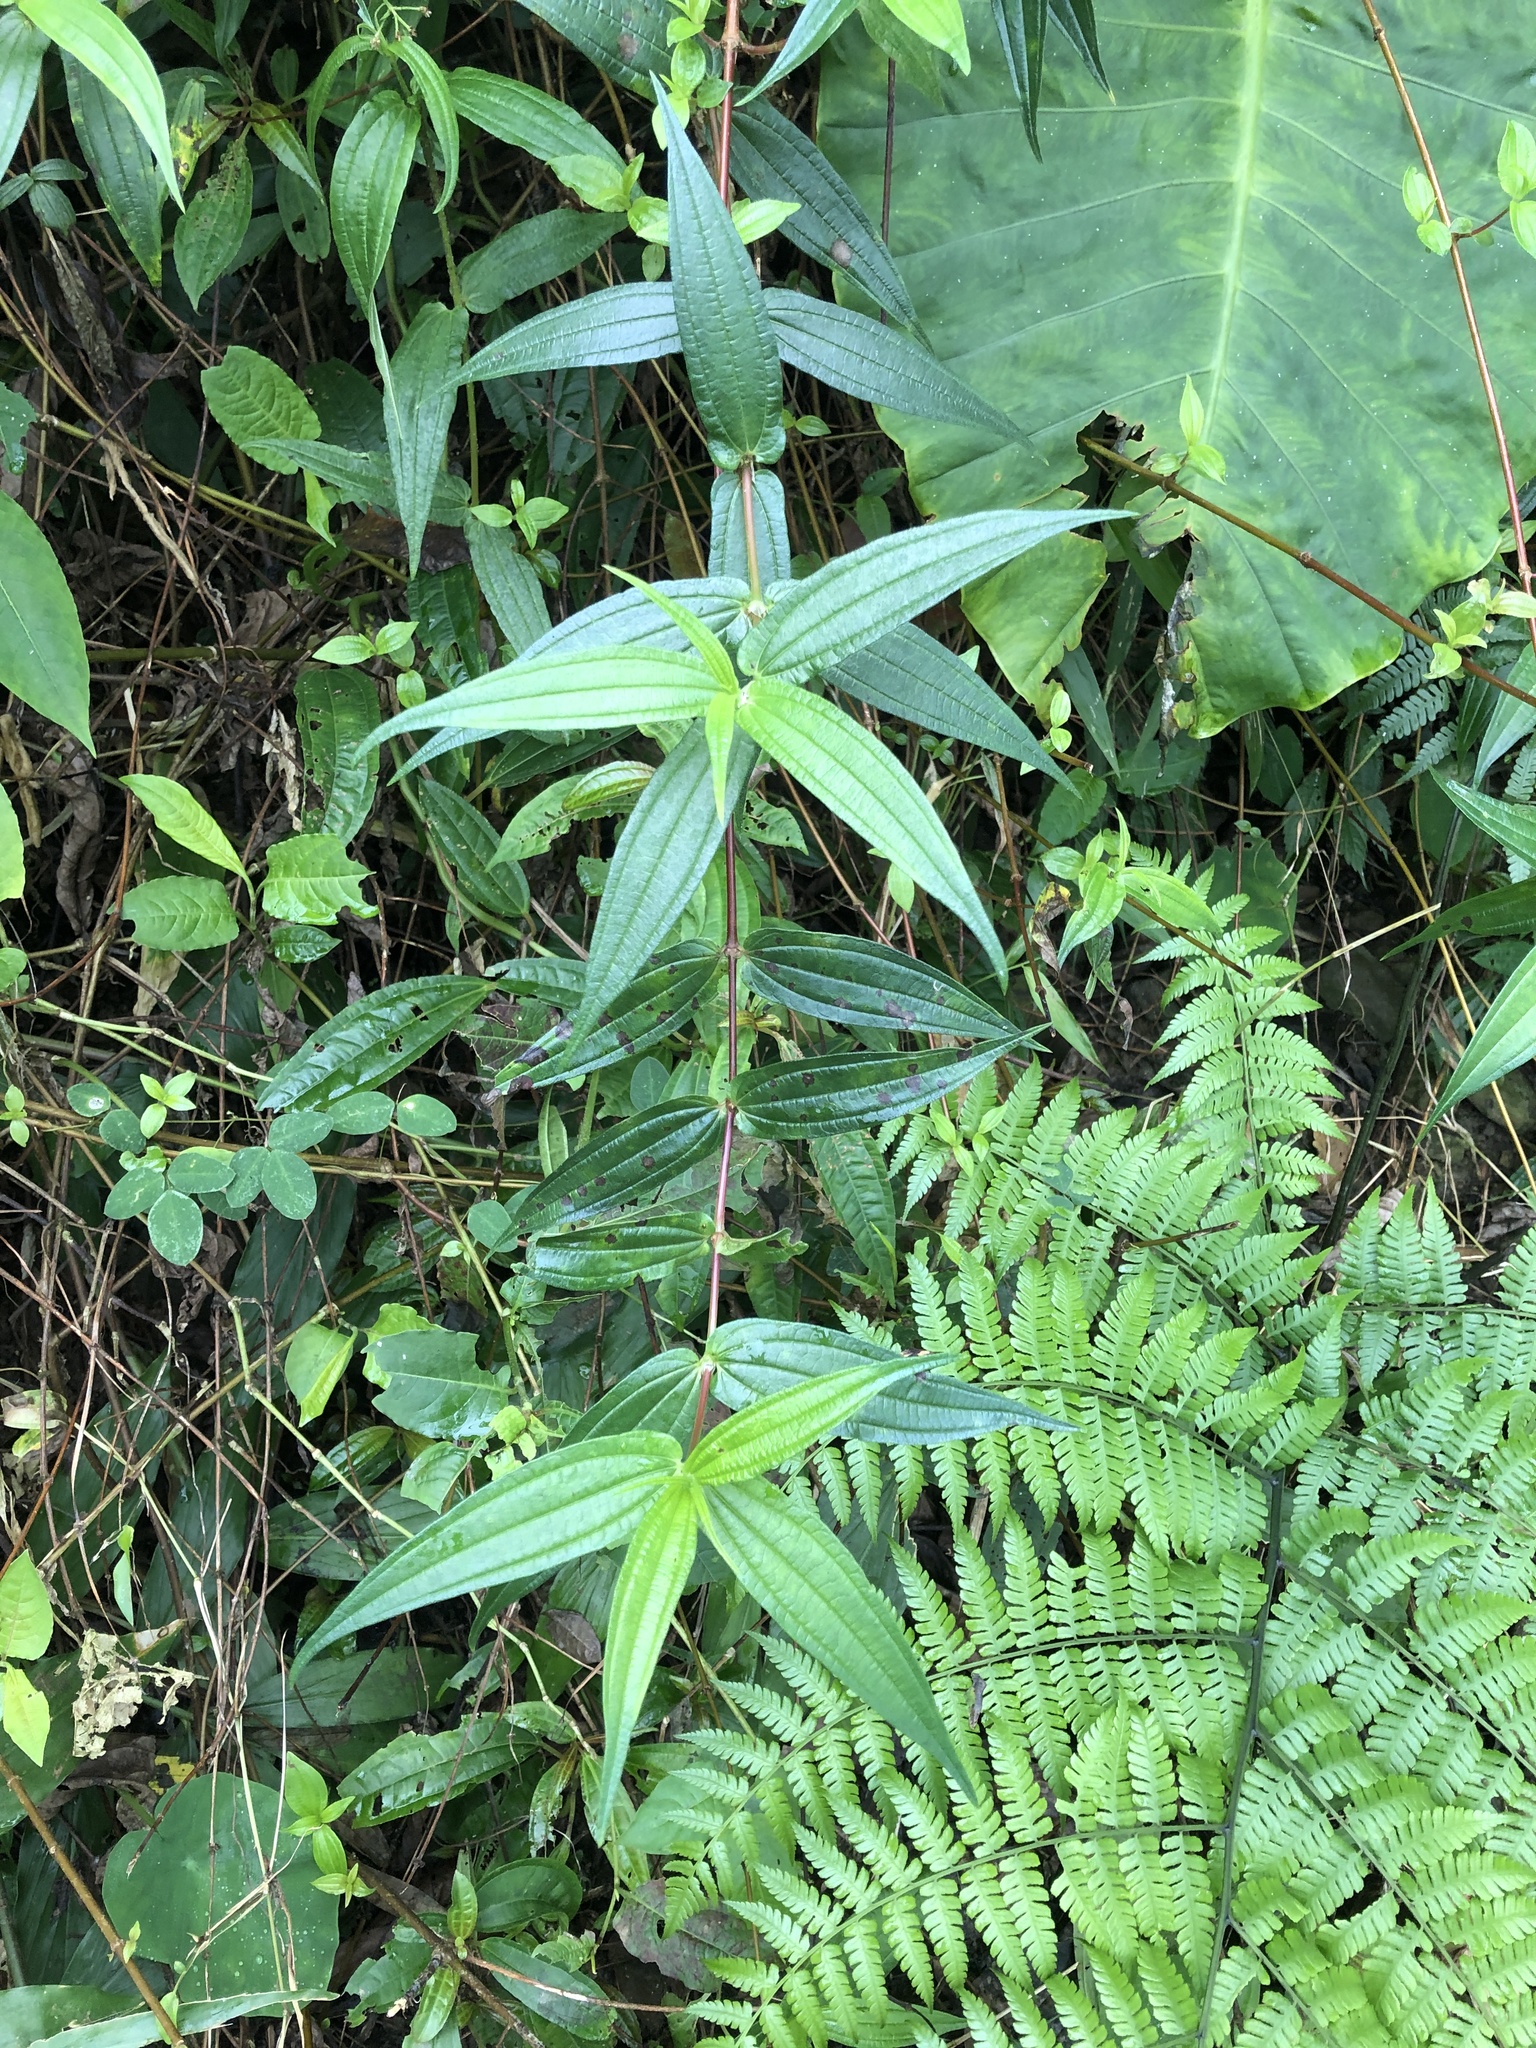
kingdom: Plantae
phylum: Tracheophyta
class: Magnoliopsida
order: Rosales
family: Urticaceae
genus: Gonostegia
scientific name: Gonostegia triandra
